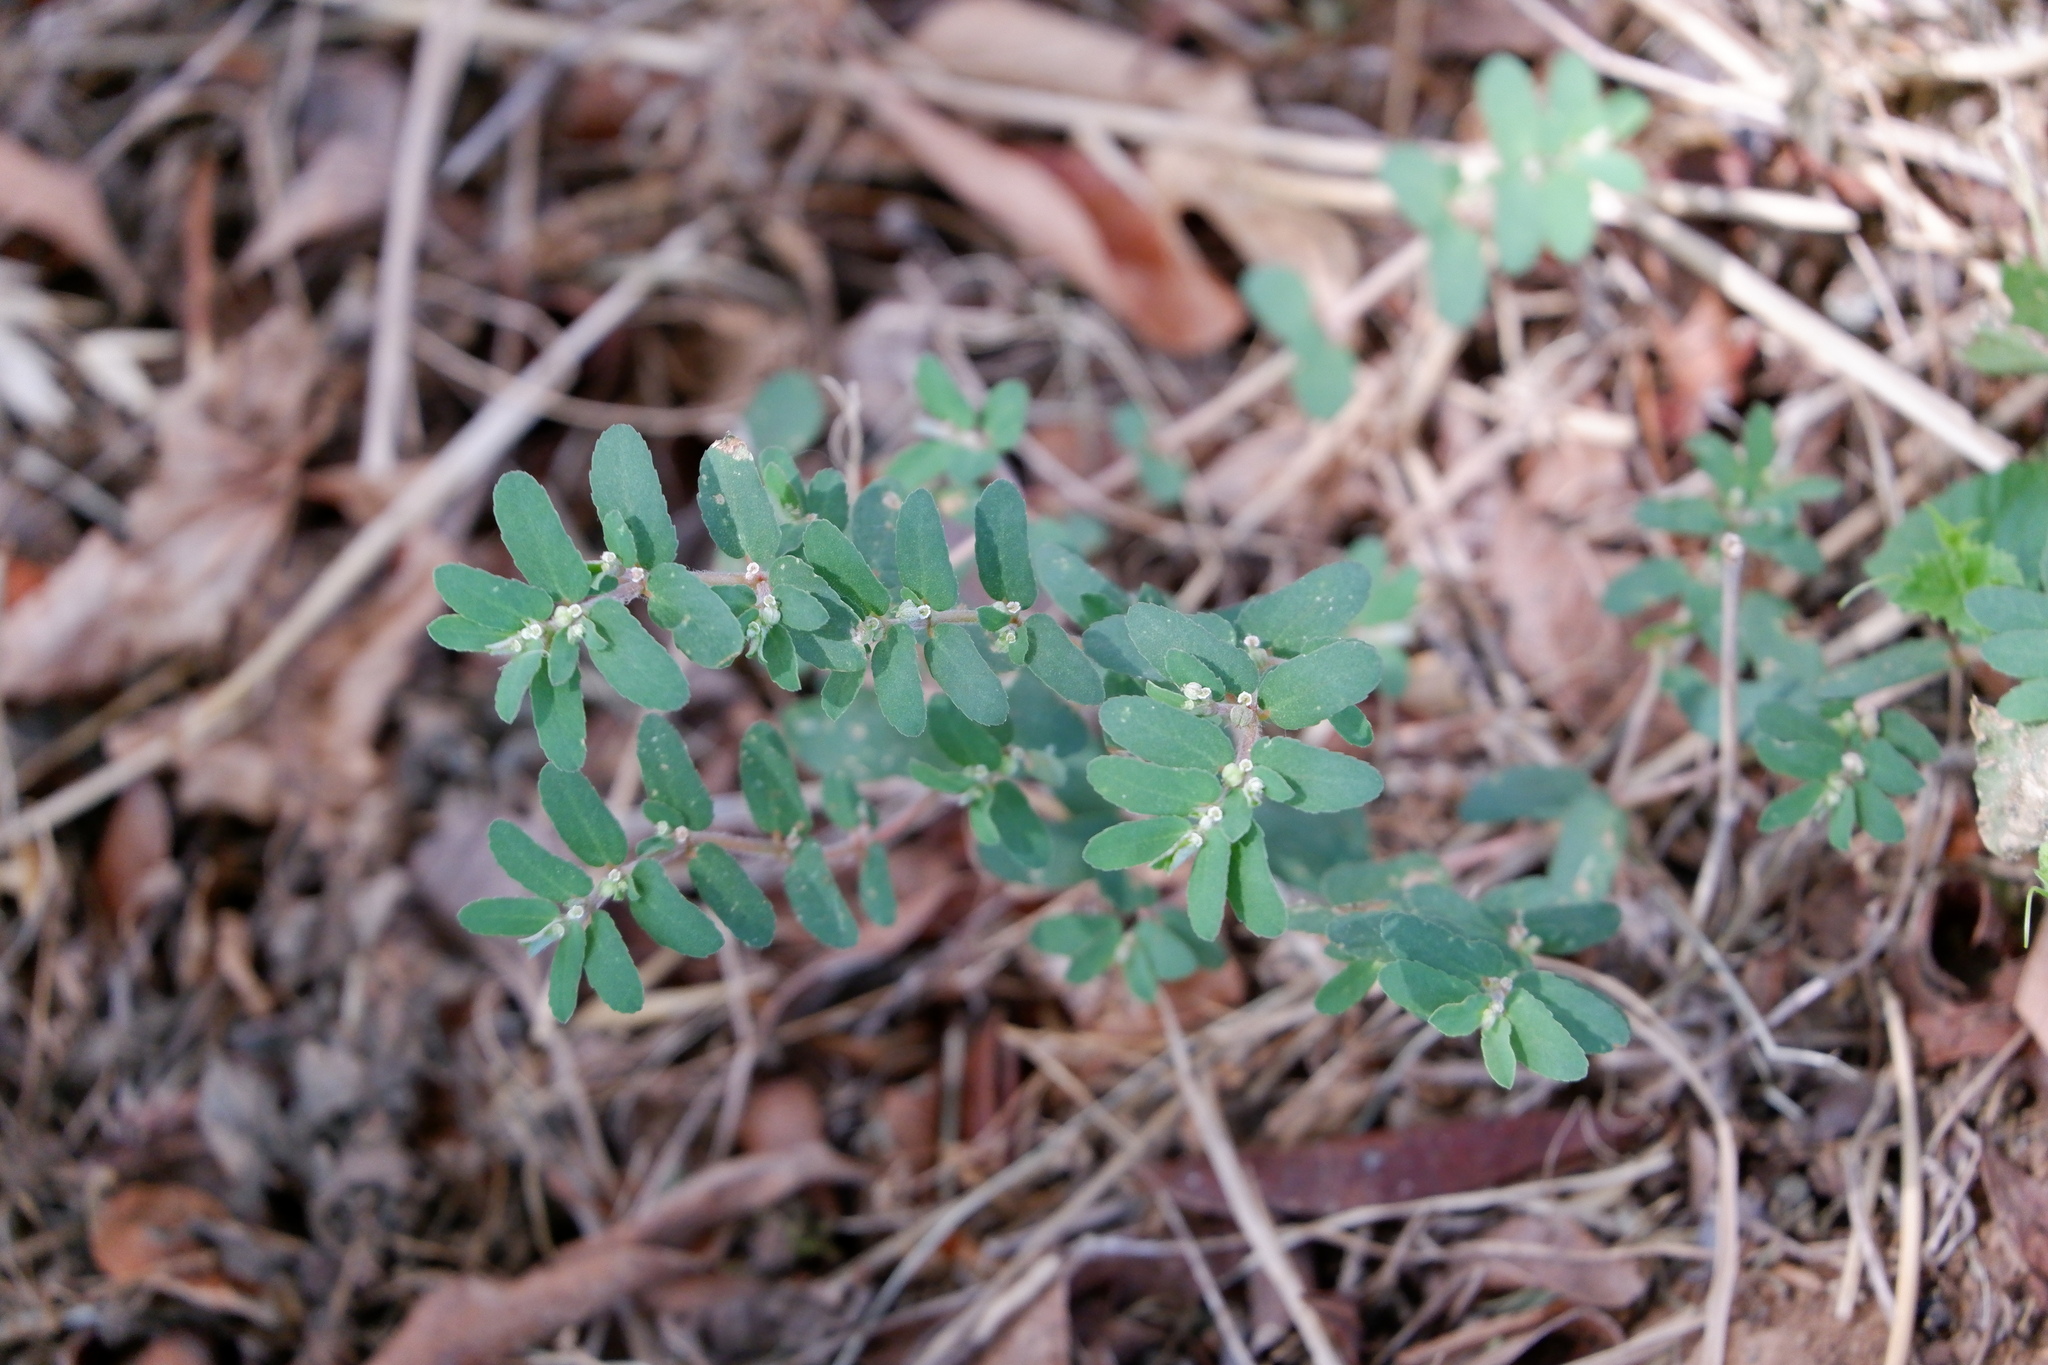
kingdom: Plantae
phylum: Tracheophyta
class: Magnoliopsida
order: Malpighiales
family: Euphorbiaceae
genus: Euphorbia
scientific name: Euphorbia maculata
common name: Spotted spurge
